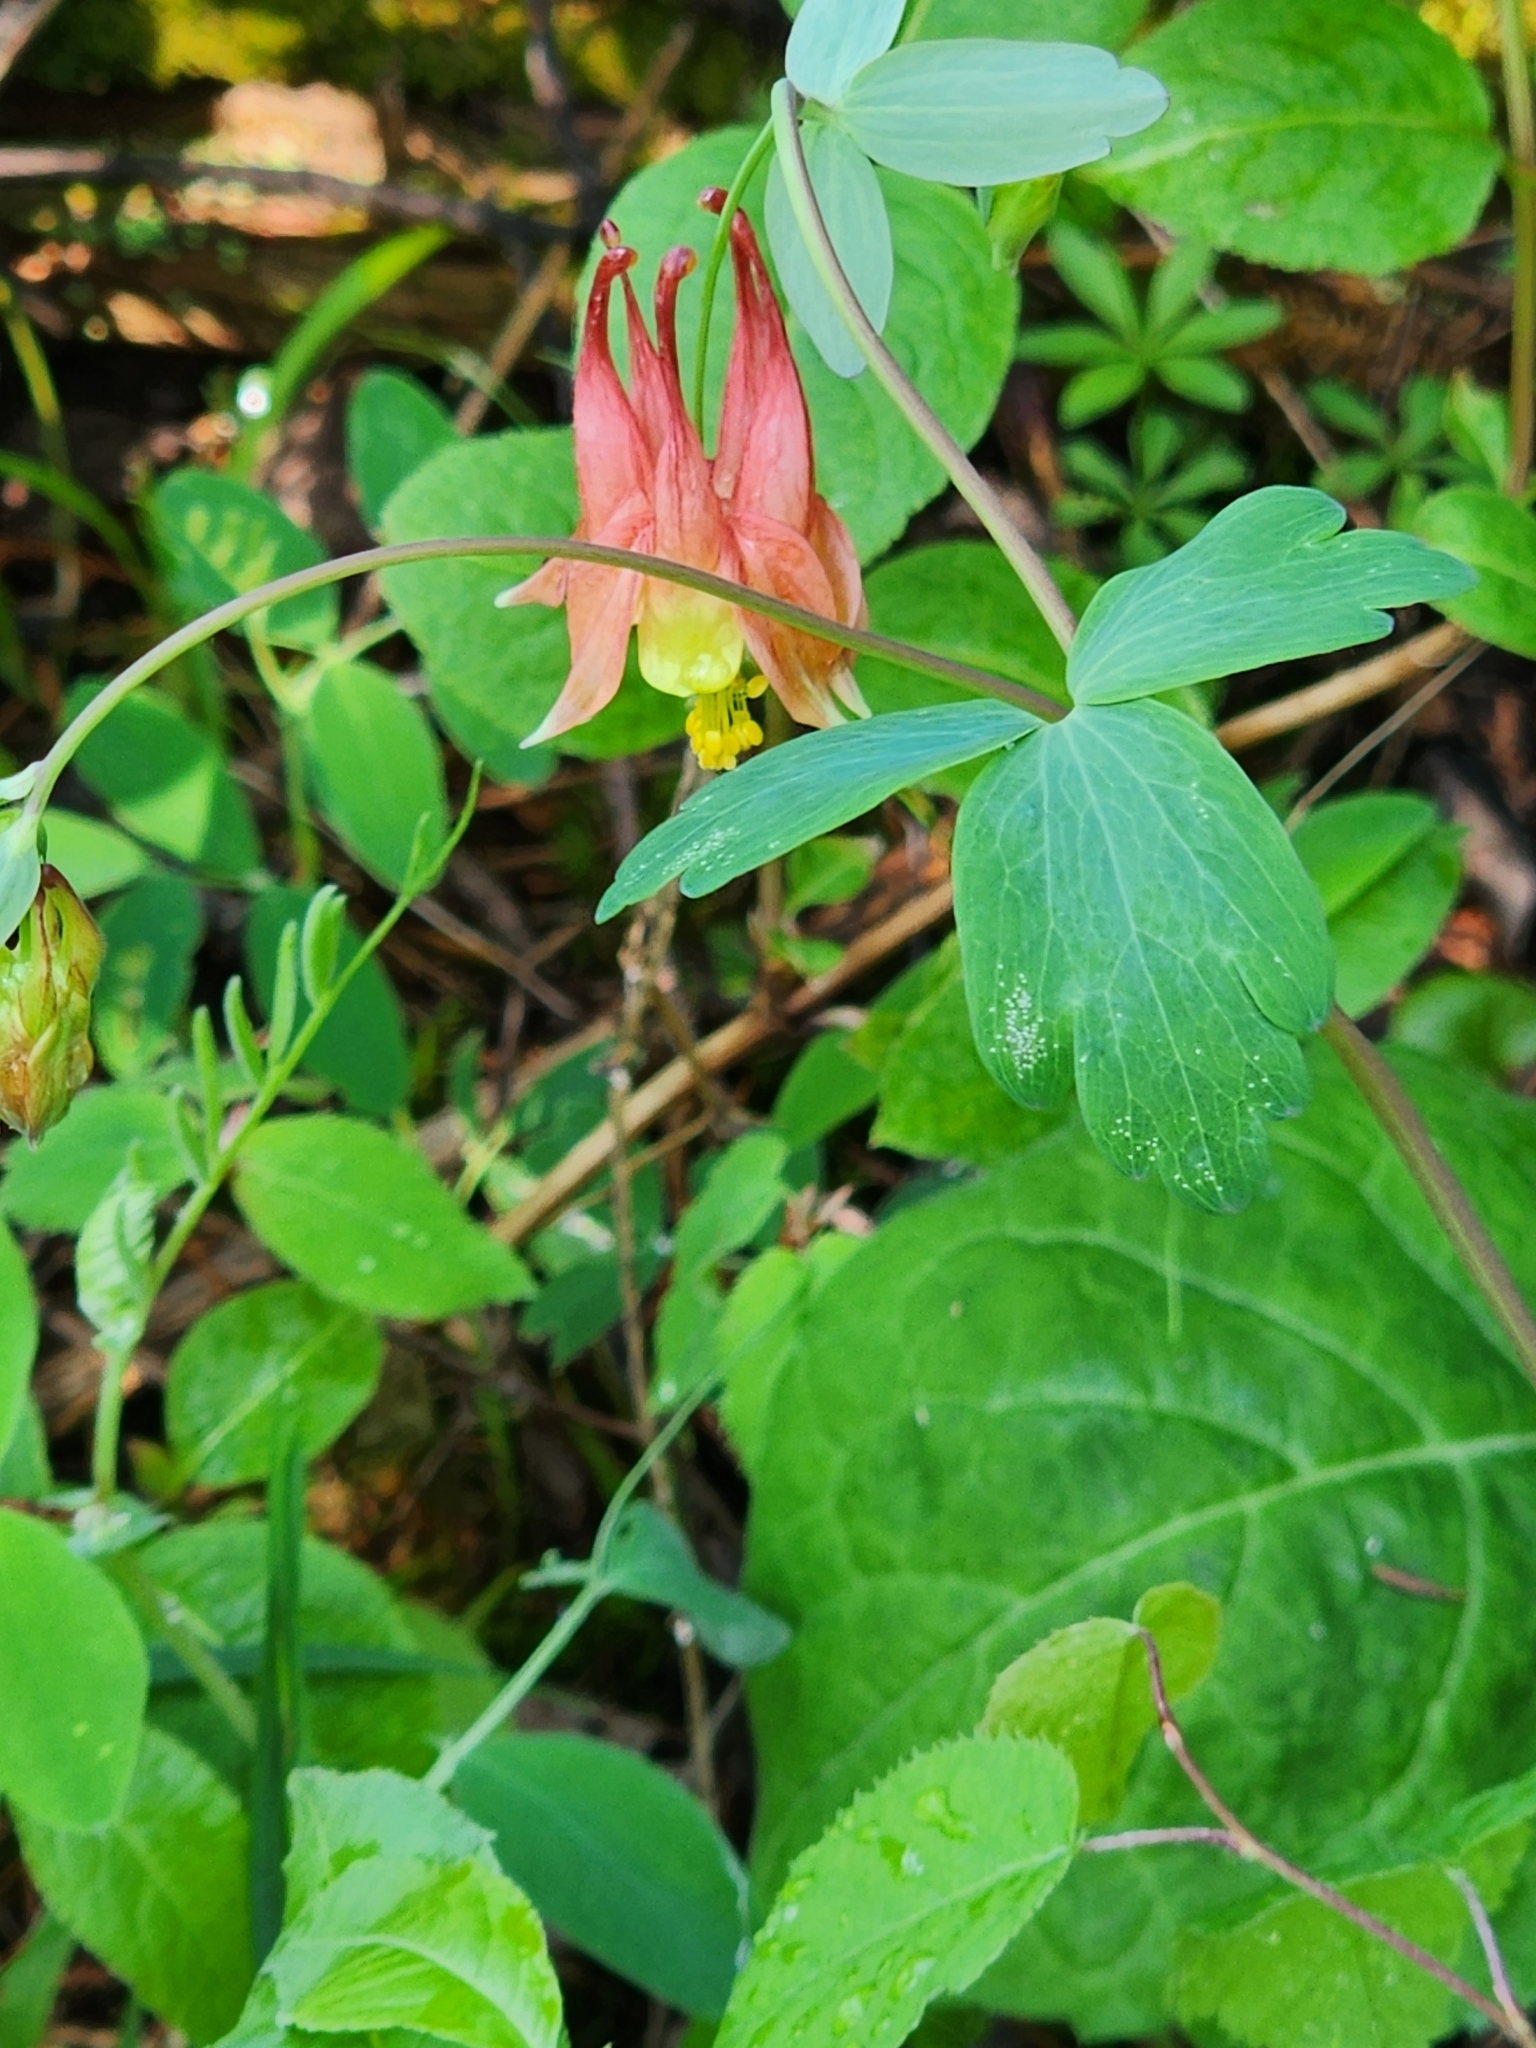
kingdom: Plantae
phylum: Tracheophyta
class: Magnoliopsida
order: Ranunculales
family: Ranunculaceae
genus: Aquilegia
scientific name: Aquilegia canadensis
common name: American columbine
